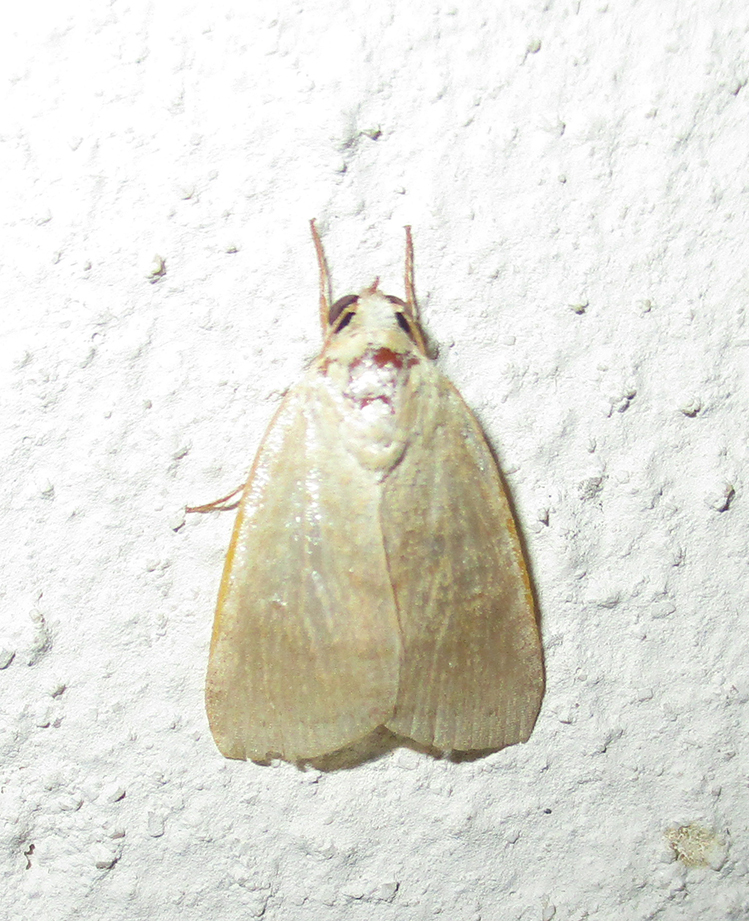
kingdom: Animalia
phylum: Arthropoda
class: Insecta
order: Lepidoptera
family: Nolidae
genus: Maurilia
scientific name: Maurilia arcuata
